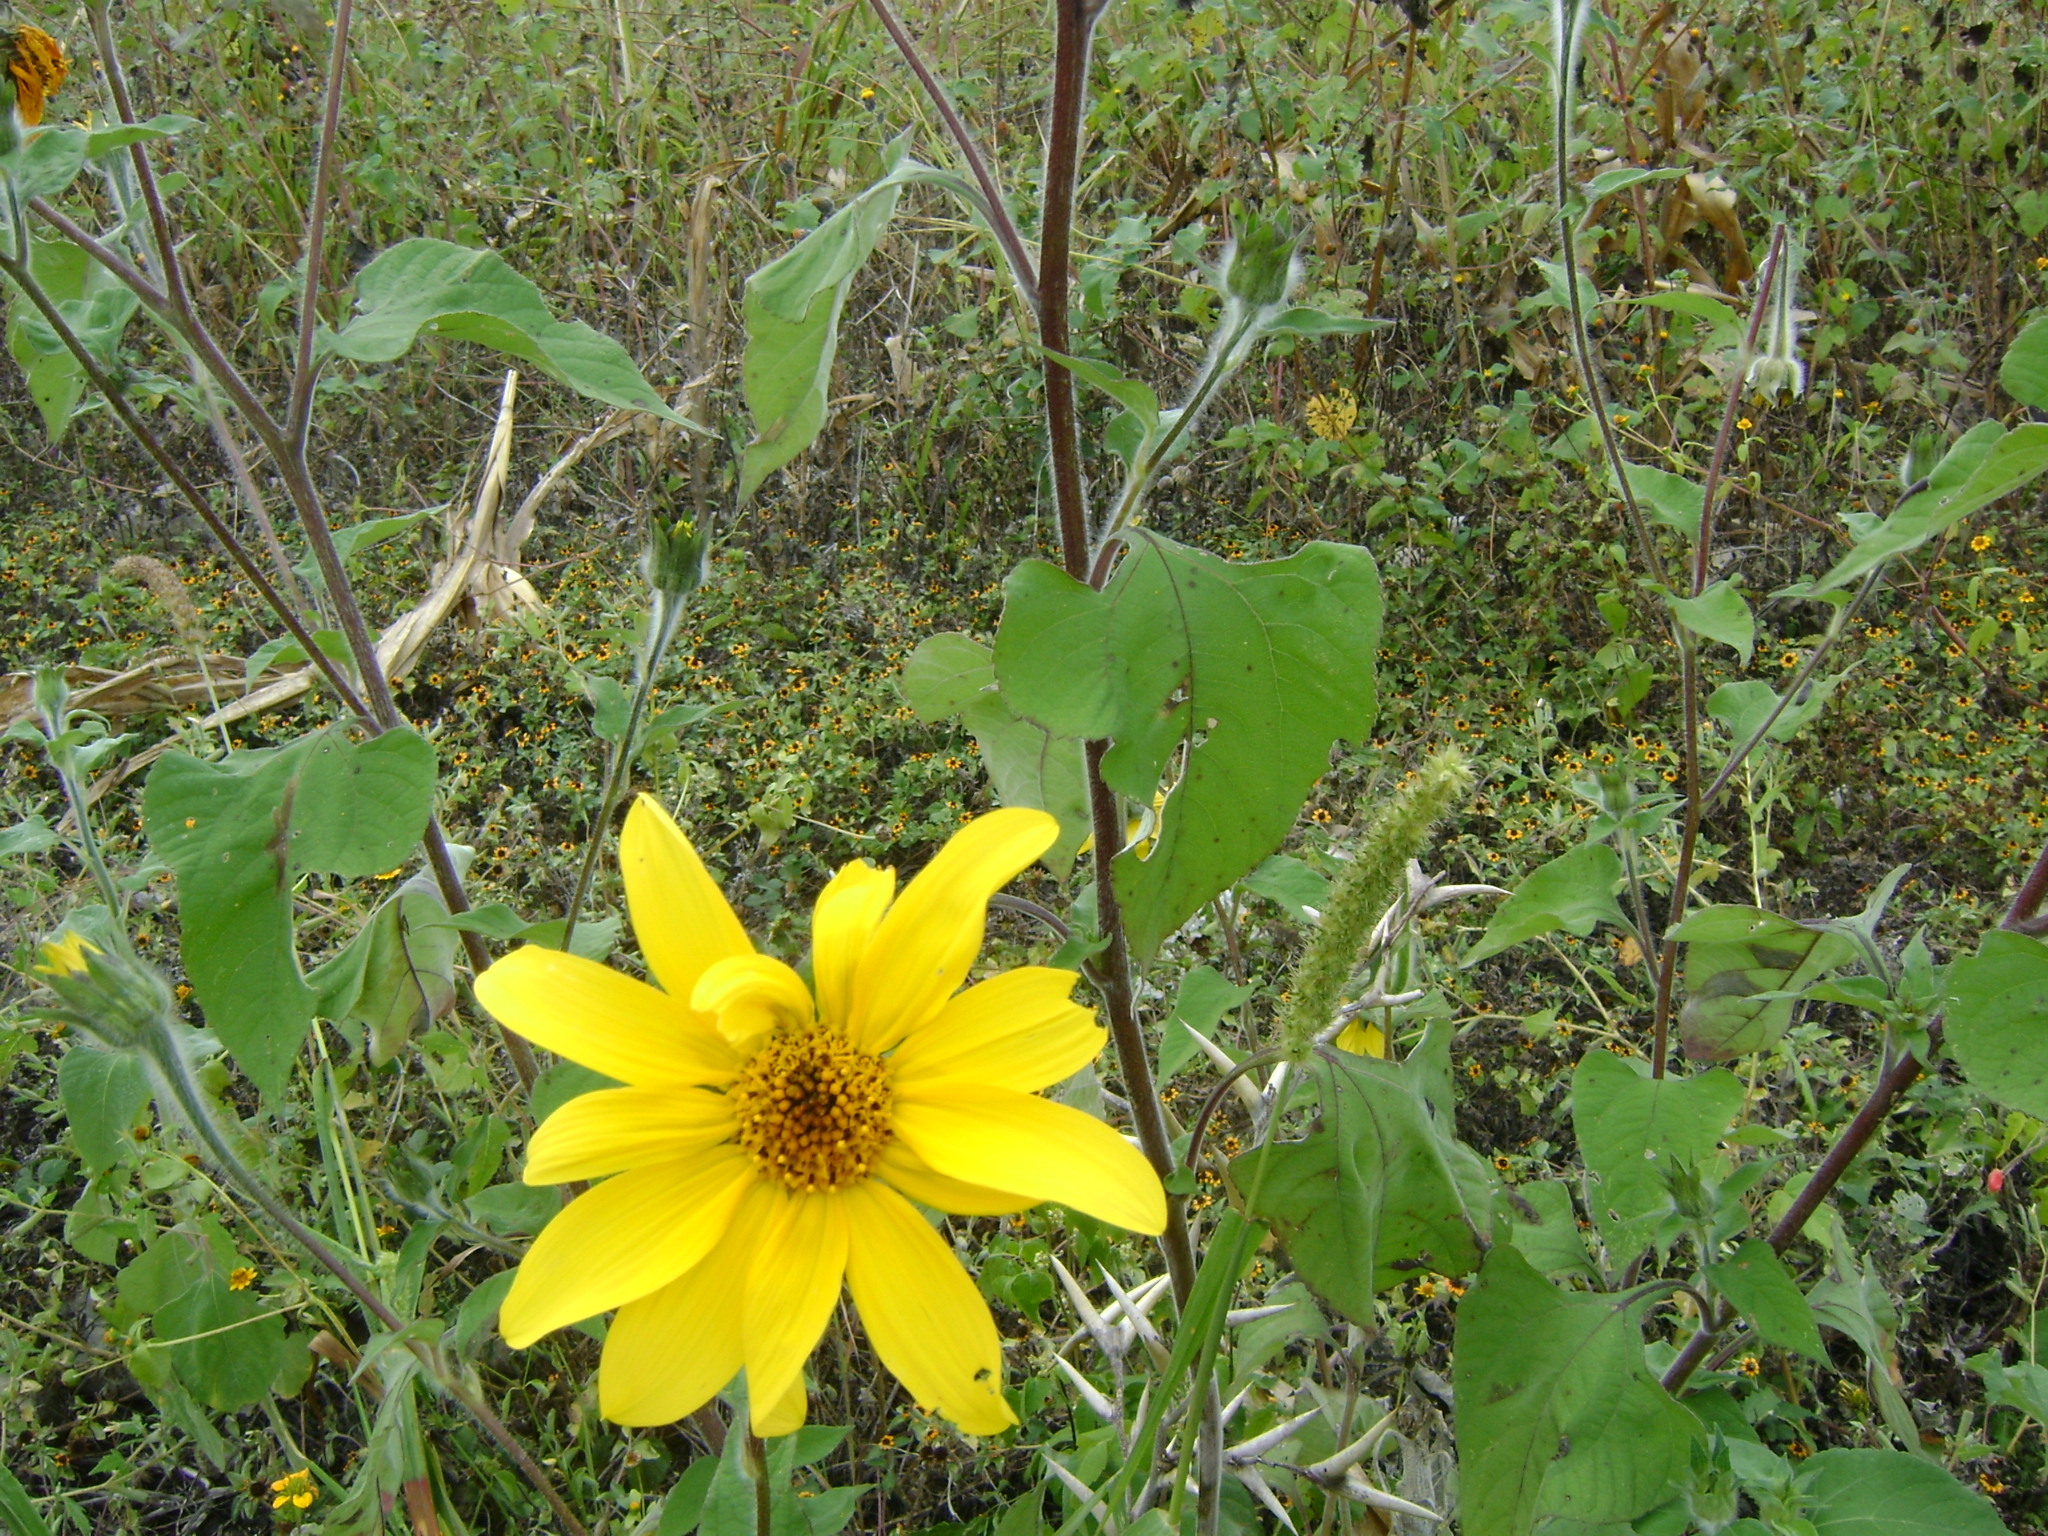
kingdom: Plantae
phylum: Tracheophyta
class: Magnoliopsida
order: Asterales
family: Asteraceae
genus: Tithonia
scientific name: Tithonia tubaeformis
